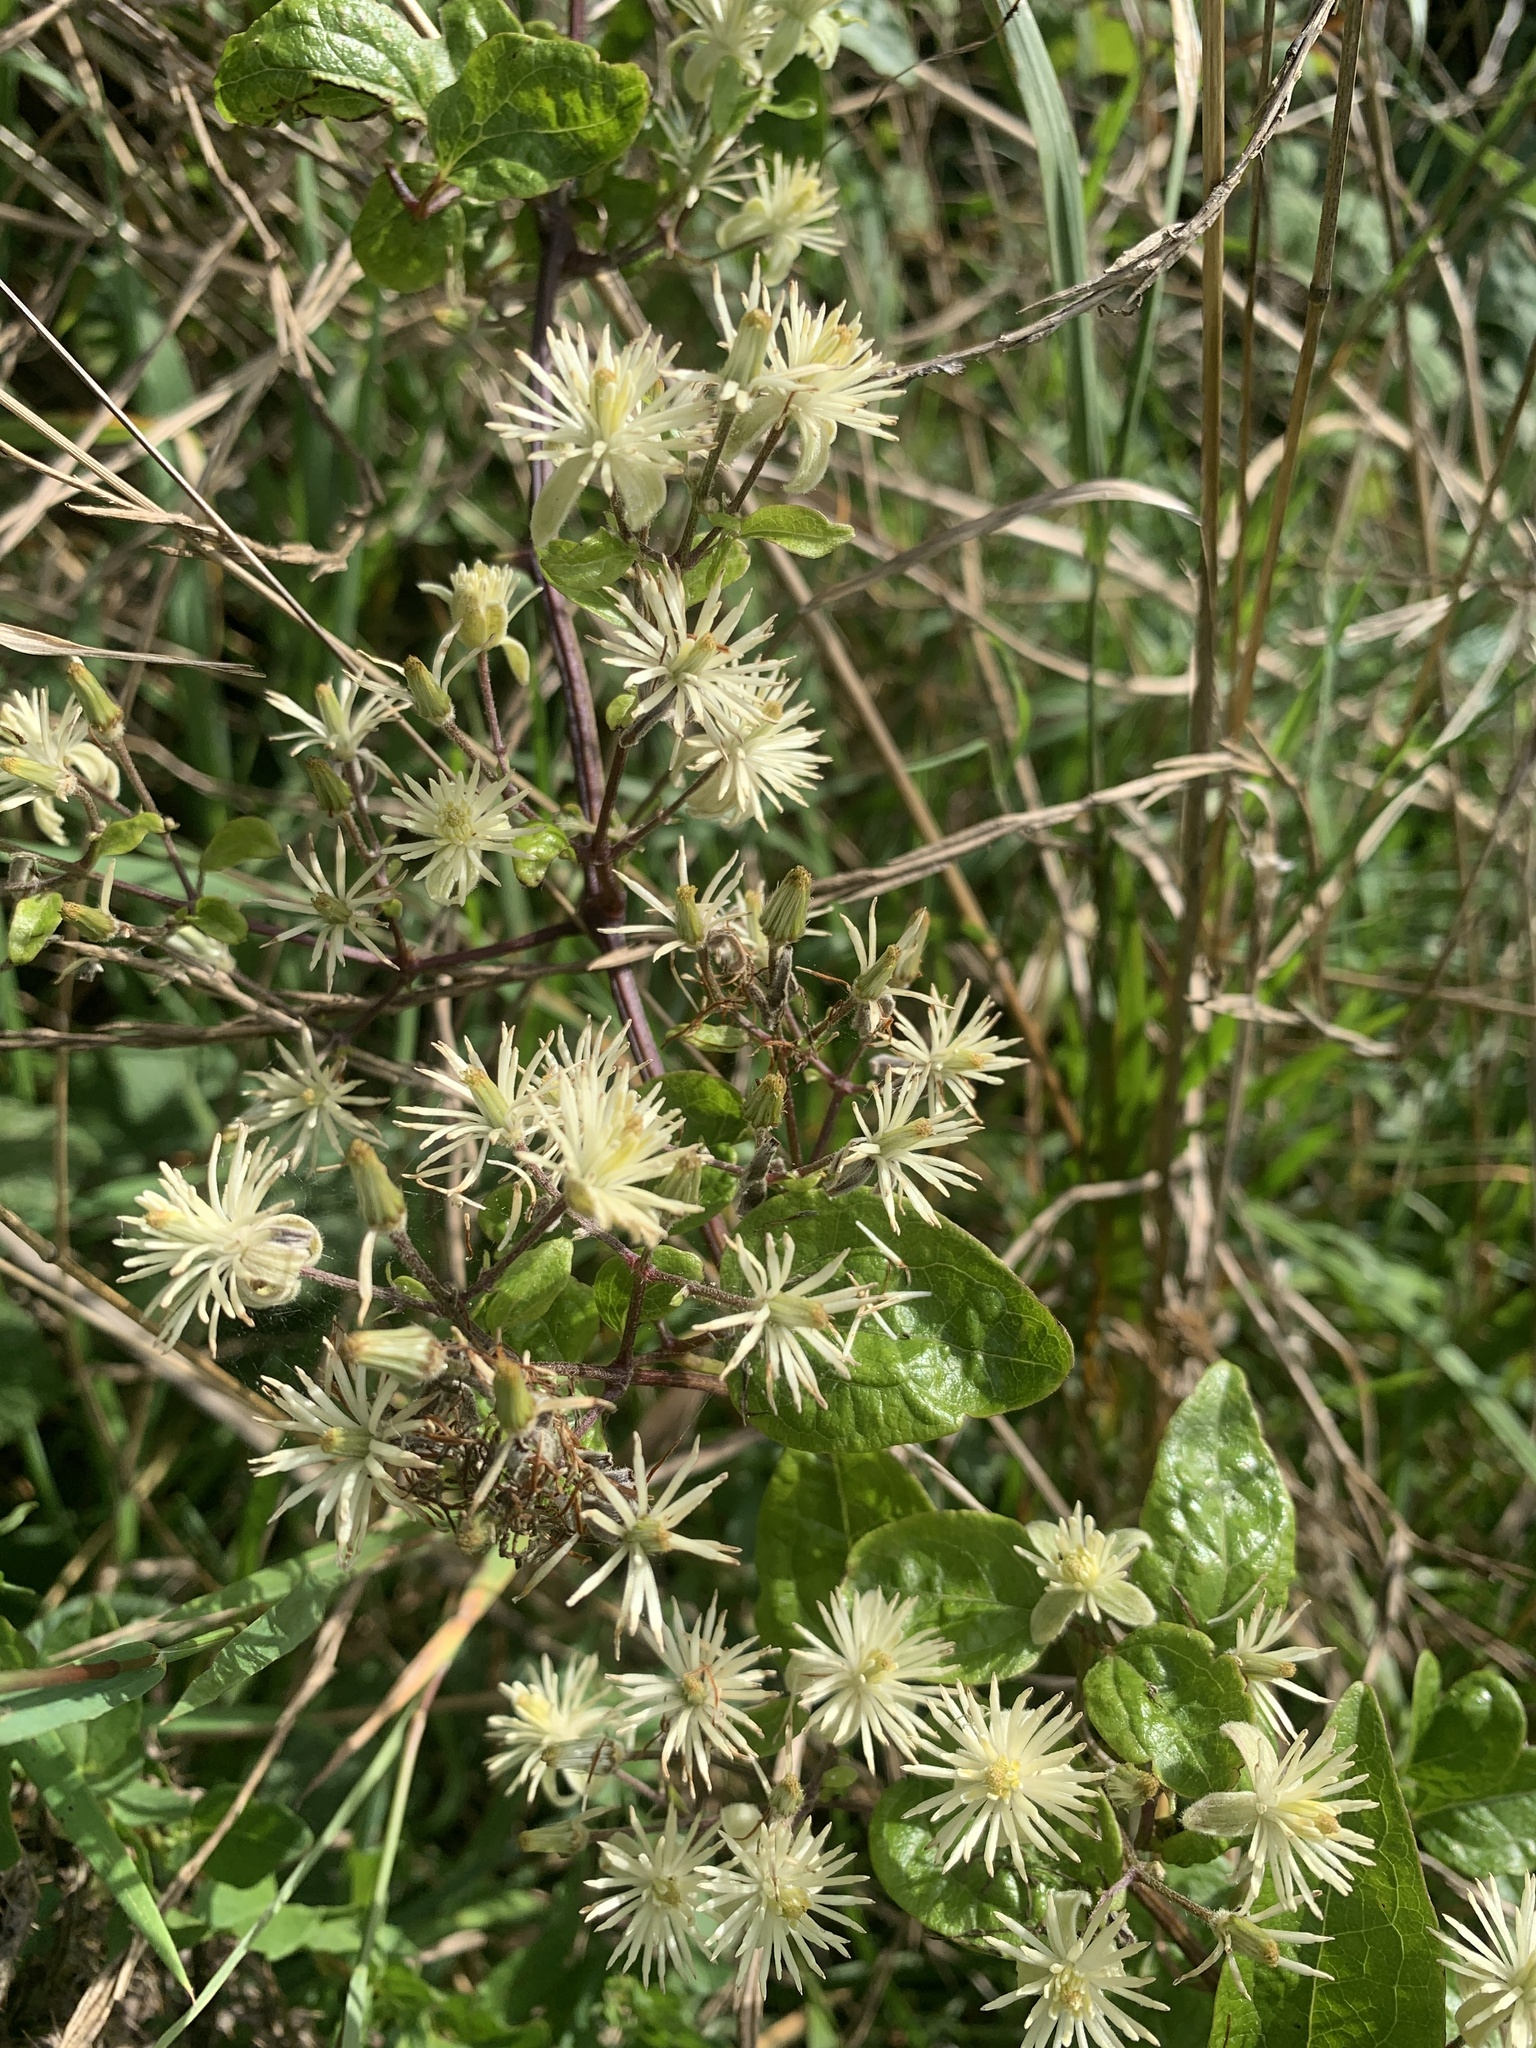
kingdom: Plantae
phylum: Tracheophyta
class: Magnoliopsida
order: Ranunculales
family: Ranunculaceae
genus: Clematis
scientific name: Clematis vitalba
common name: Evergreen clematis
